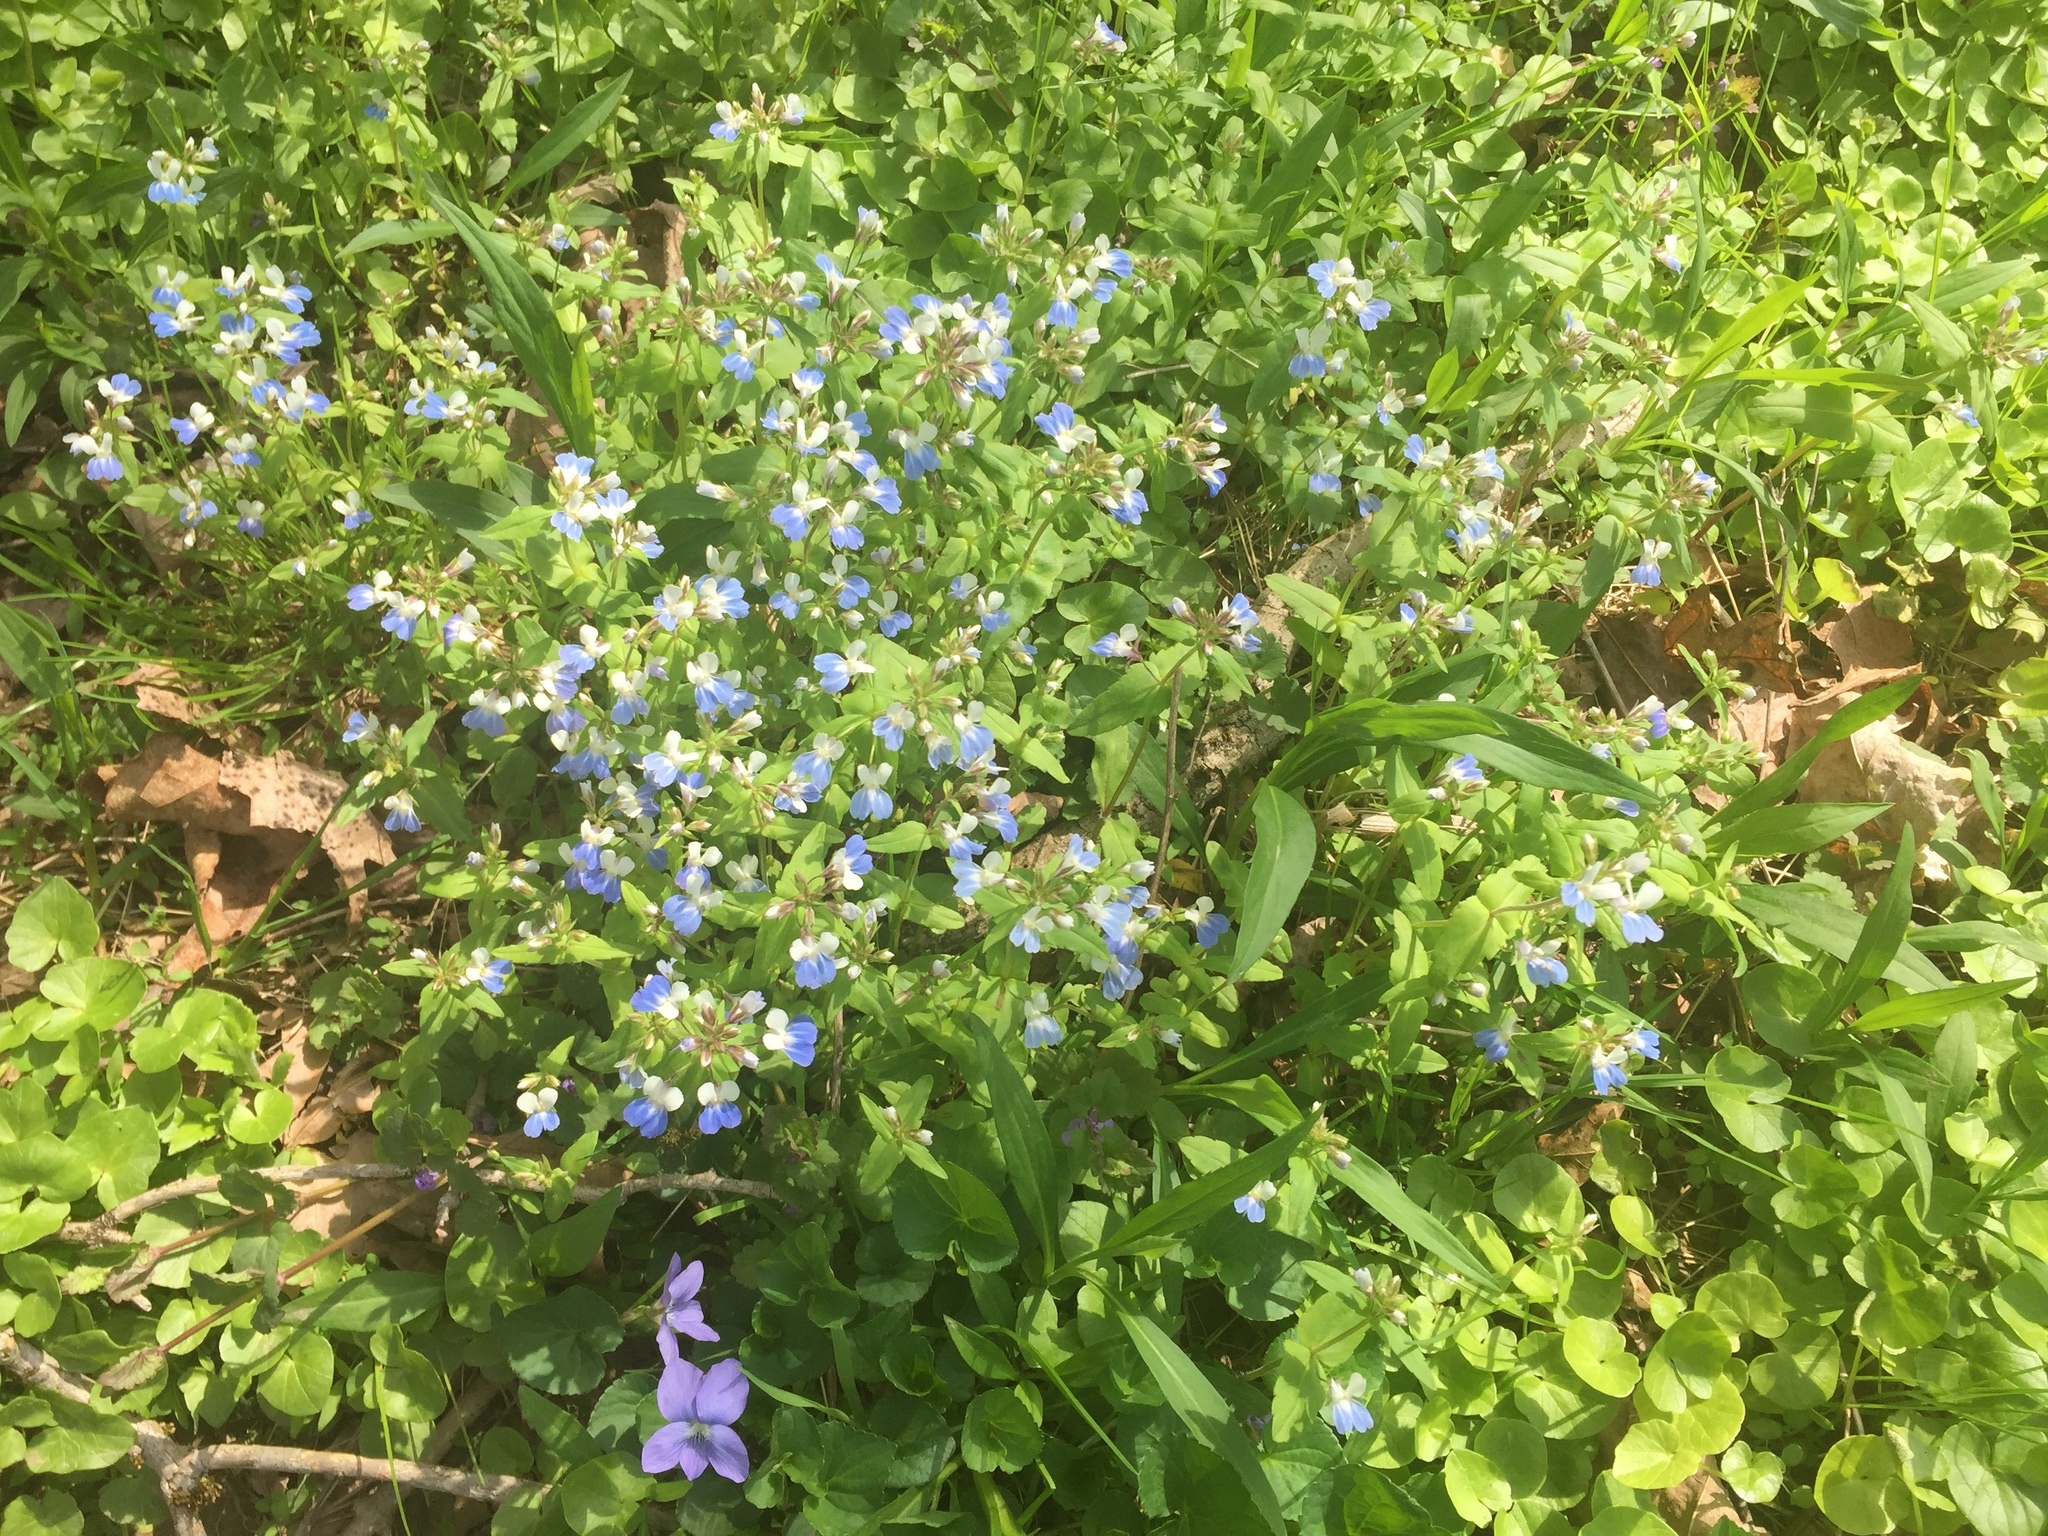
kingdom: Plantae
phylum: Tracheophyta
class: Magnoliopsida
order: Lamiales
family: Plantaginaceae
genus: Collinsia
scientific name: Collinsia verna
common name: Broad-leaved collinsia
